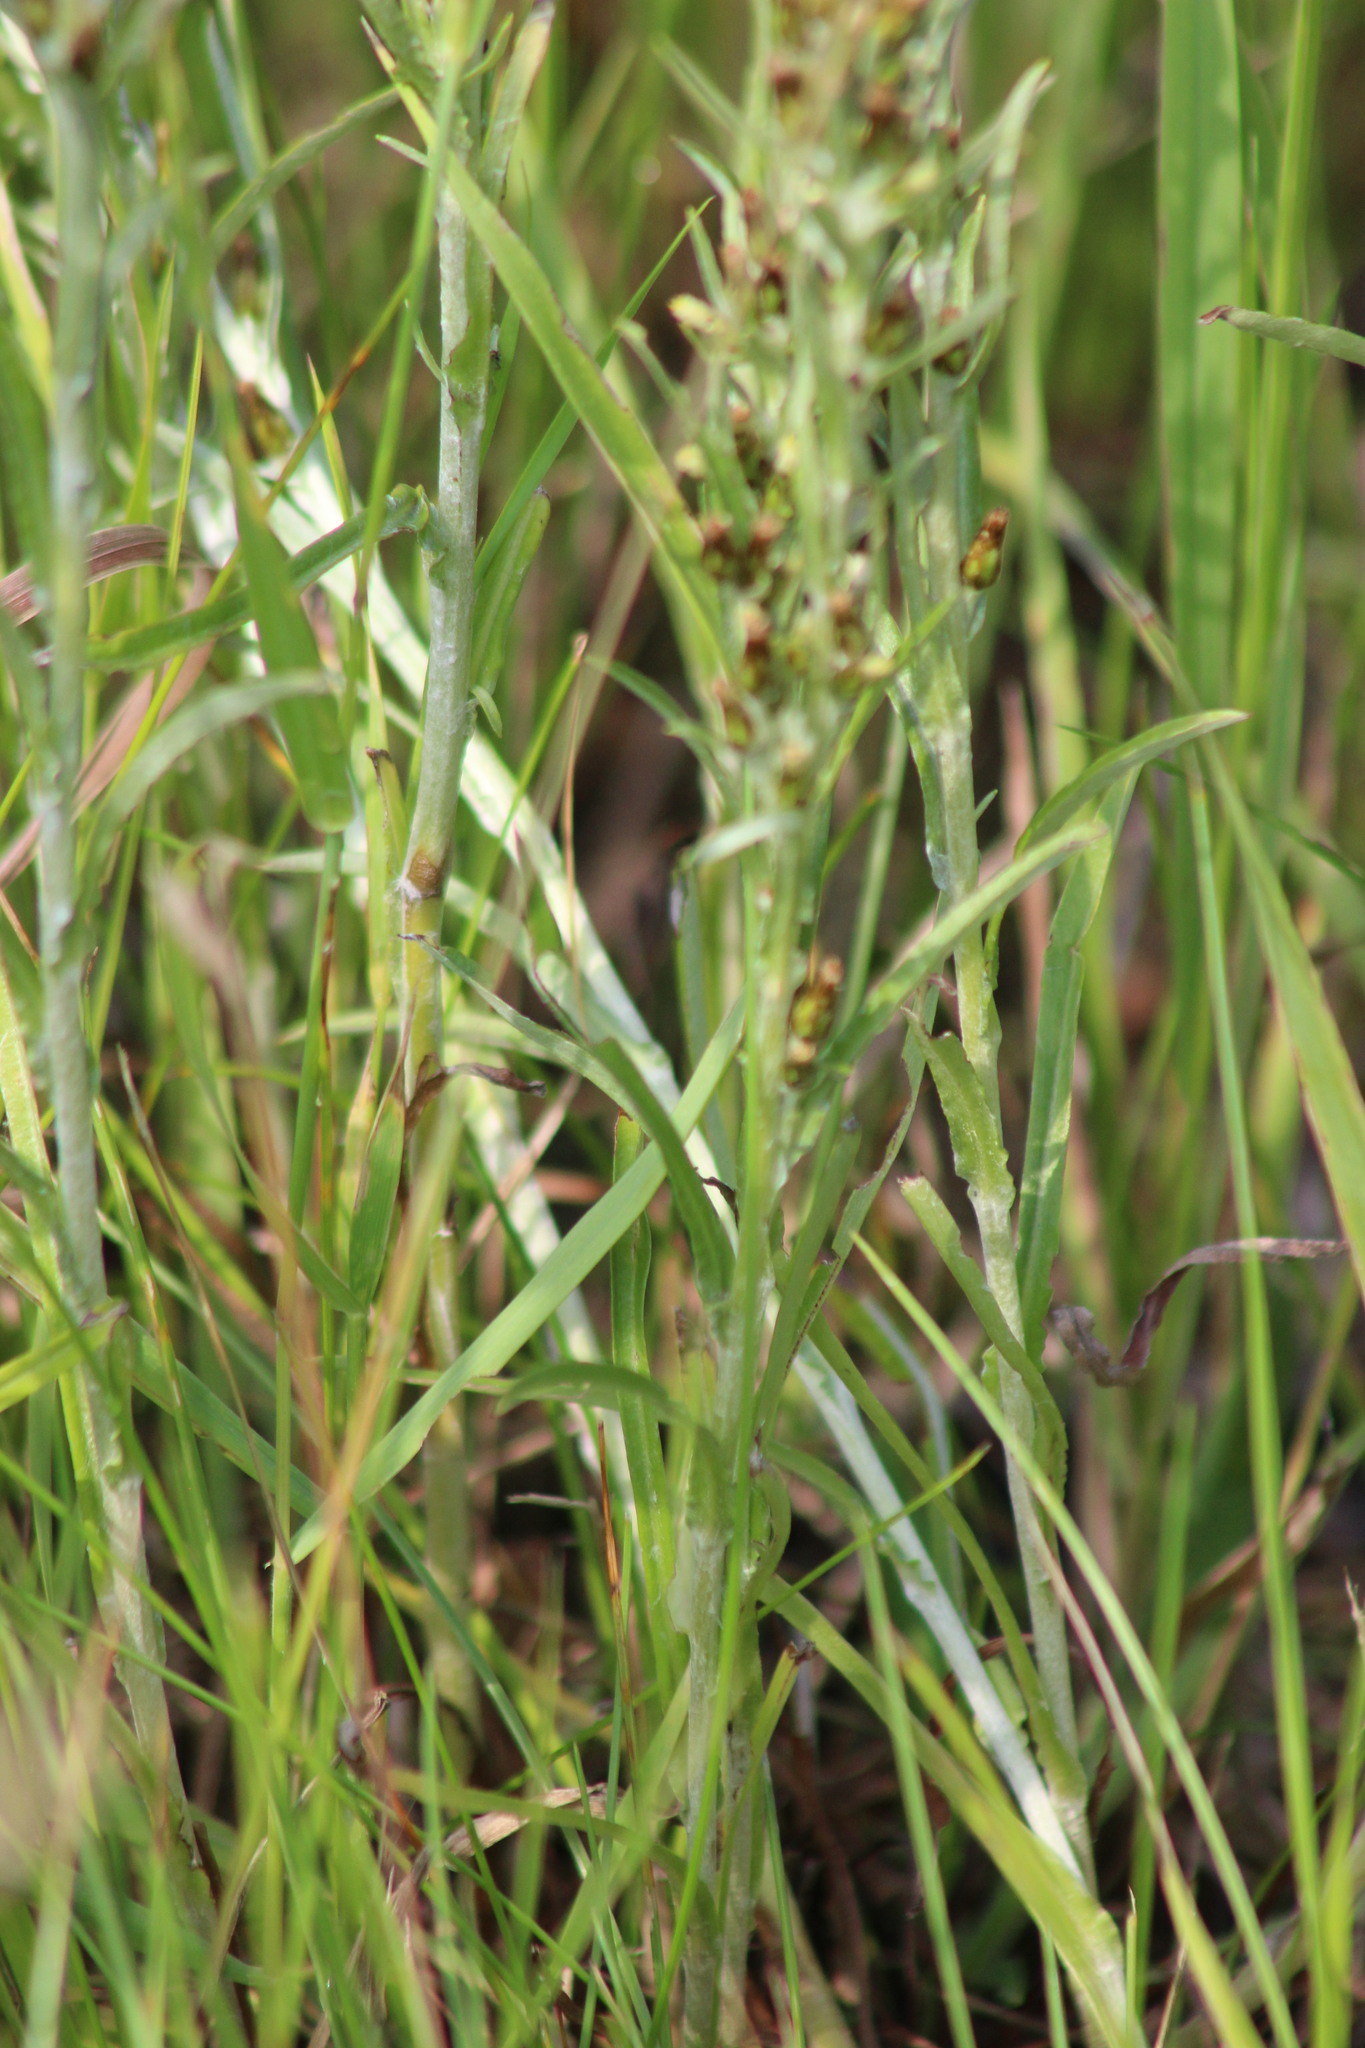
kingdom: Plantae
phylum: Tracheophyta
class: Magnoliopsida
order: Asterales
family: Asteraceae
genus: Omalotheca
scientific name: Omalotheca sylvatica
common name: Heath cudweed
